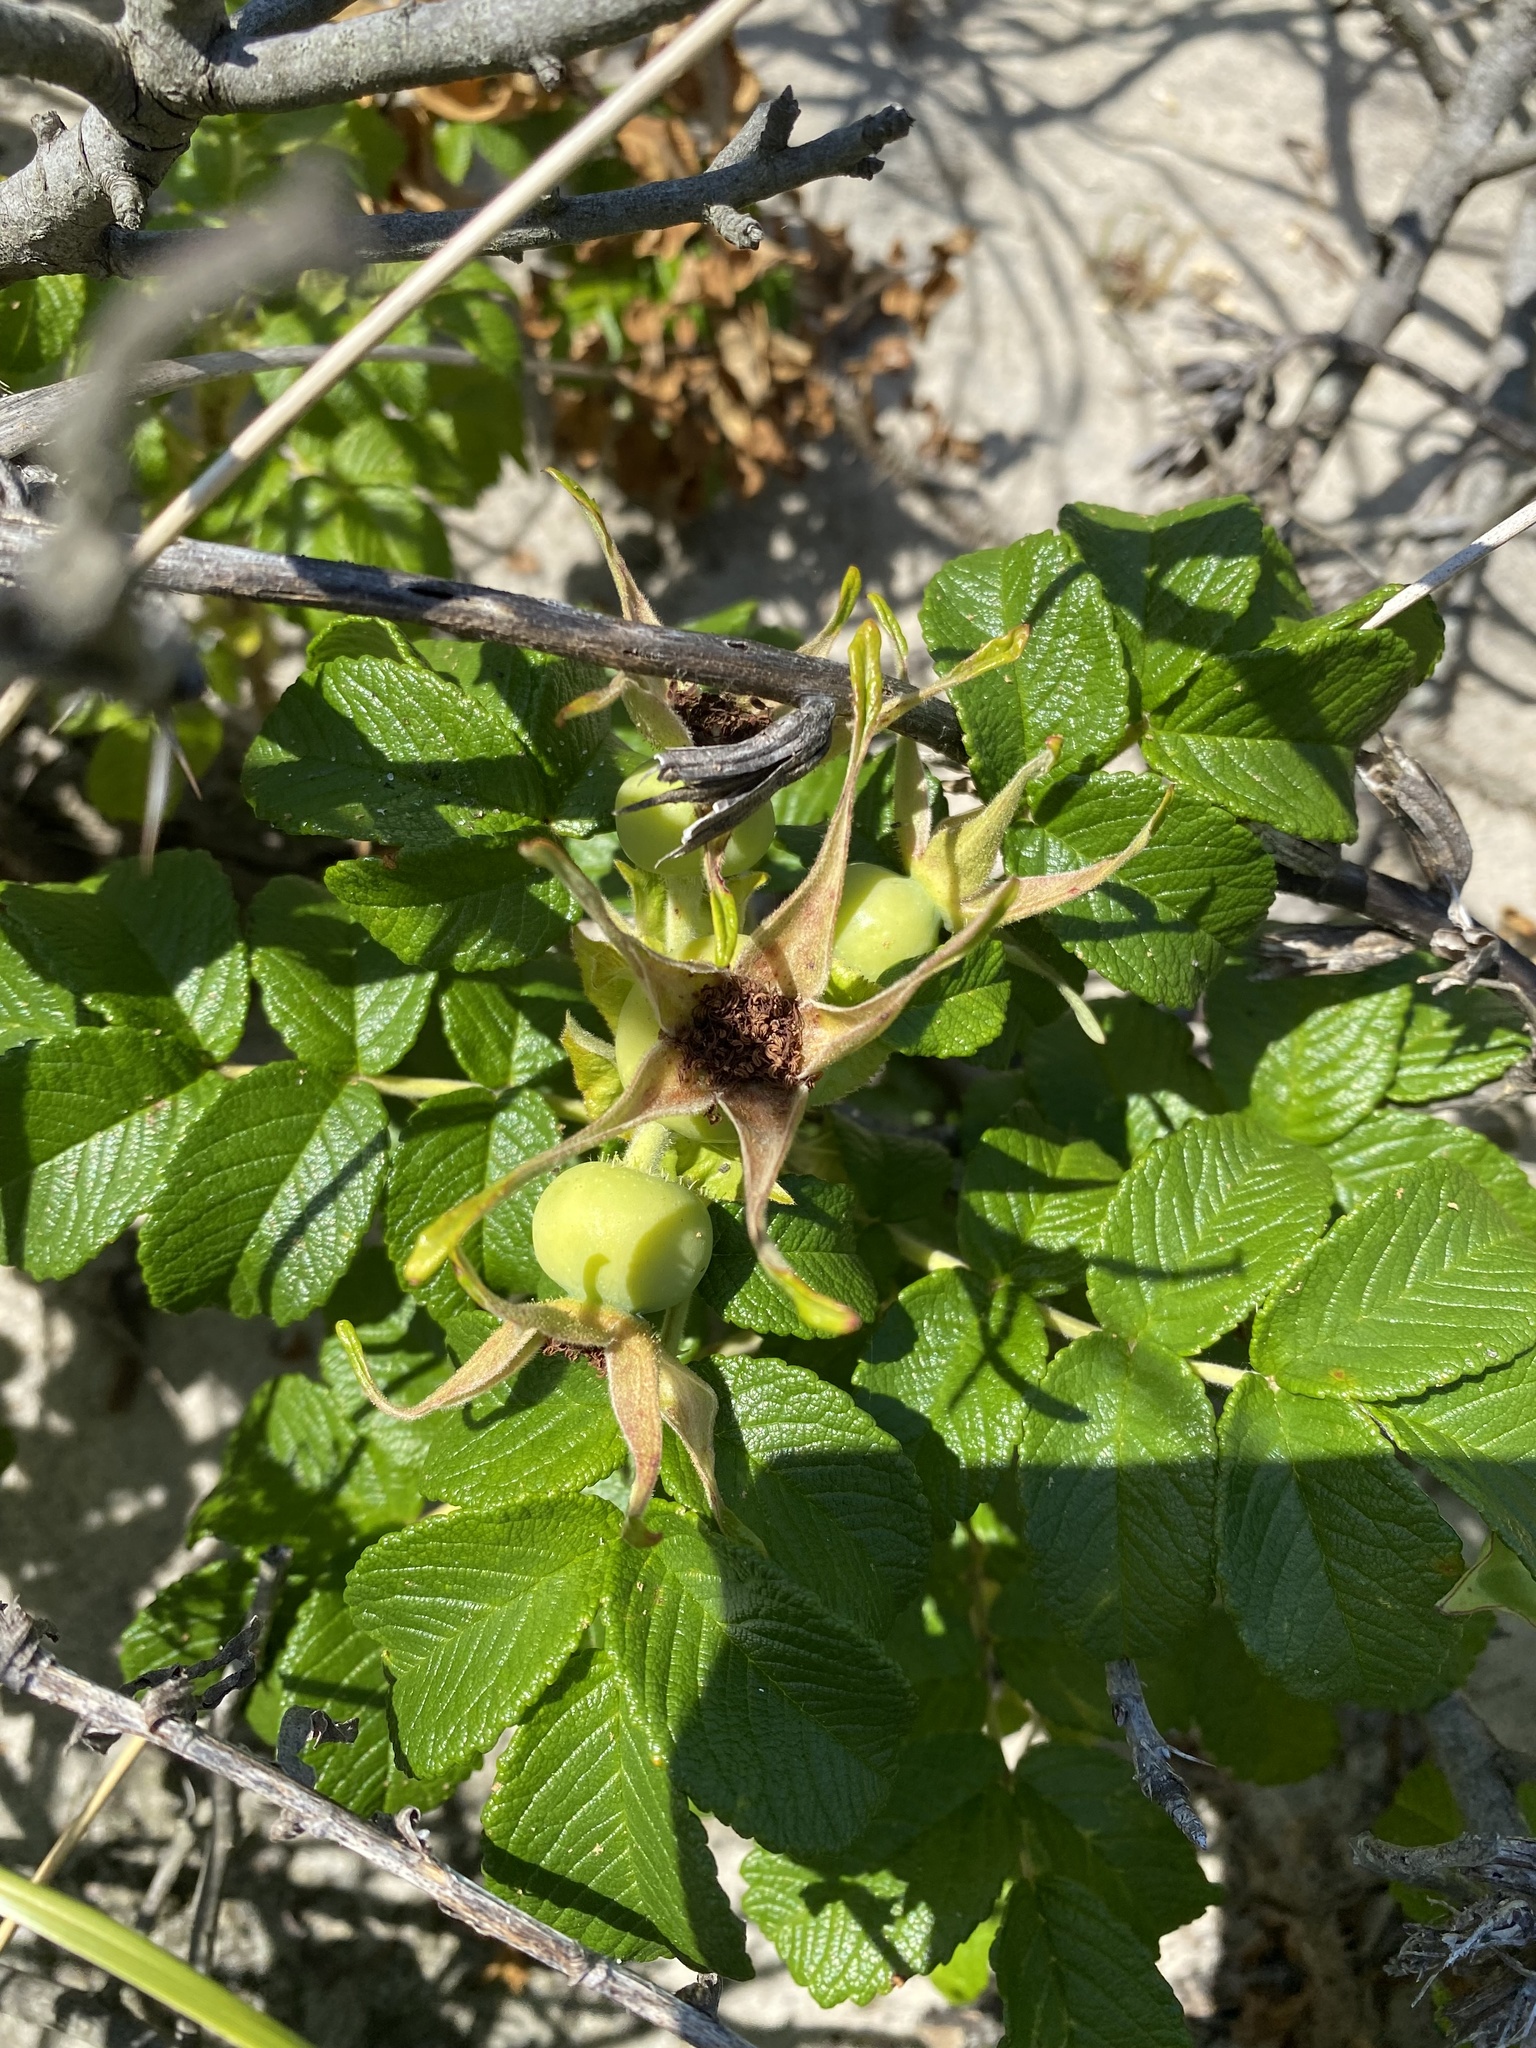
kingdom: Plantae
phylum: Tracheophyta
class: Magnoliopsida
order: Rosales
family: Rosaceae
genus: Rosa
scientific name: Rosa rugosa
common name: Japanese rose
